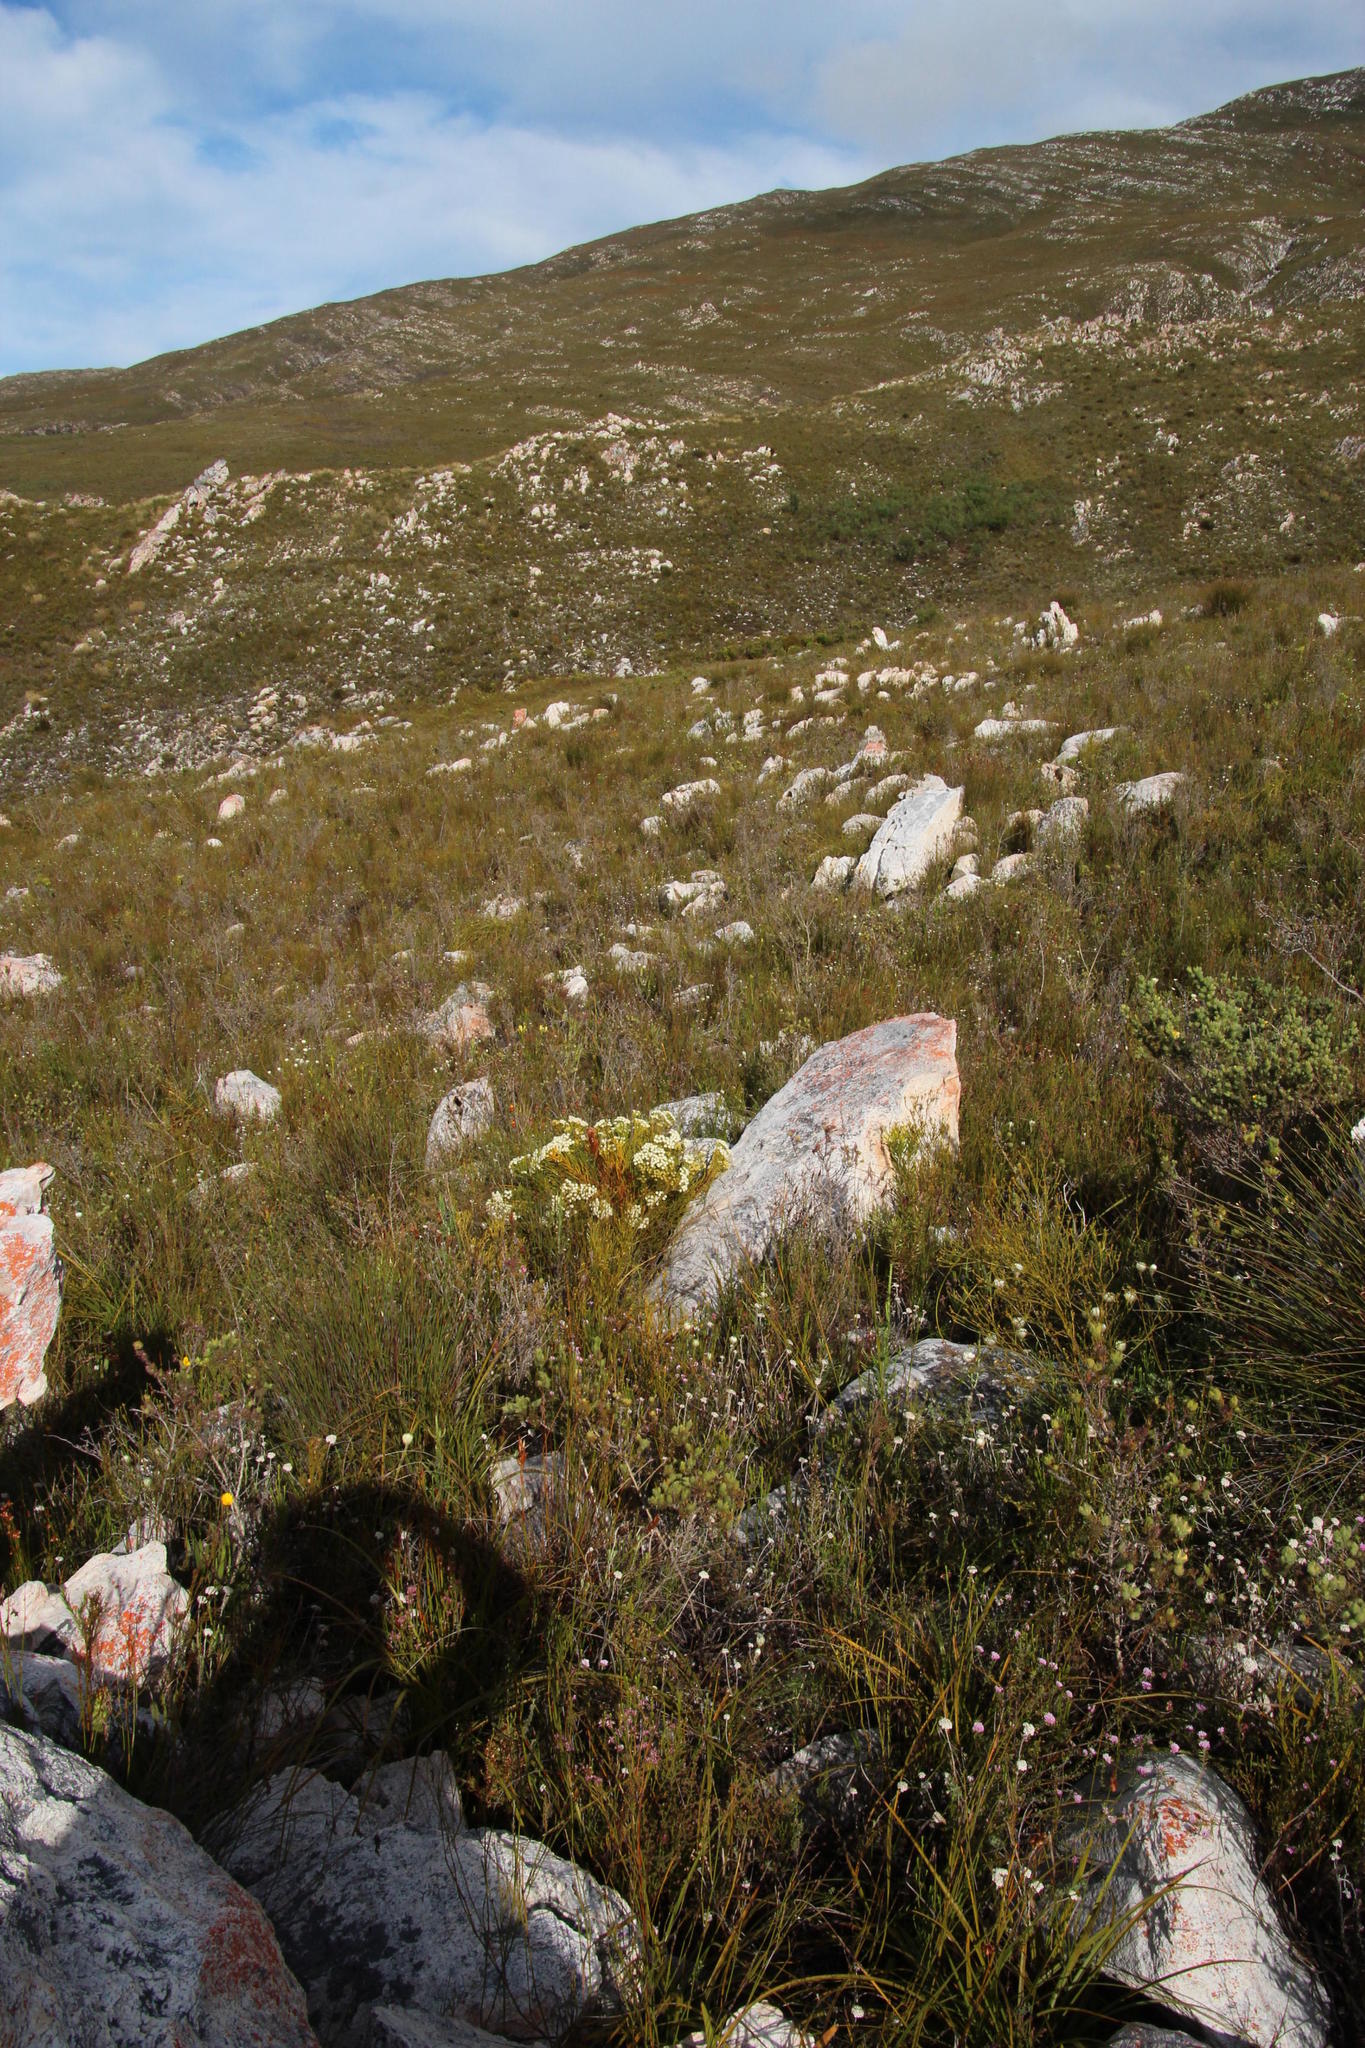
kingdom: Plantae
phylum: Tracheophyta
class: Magnoliopsida
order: Bruniales
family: Bruniaceae
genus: Brunia
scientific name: Brunia paleacea
